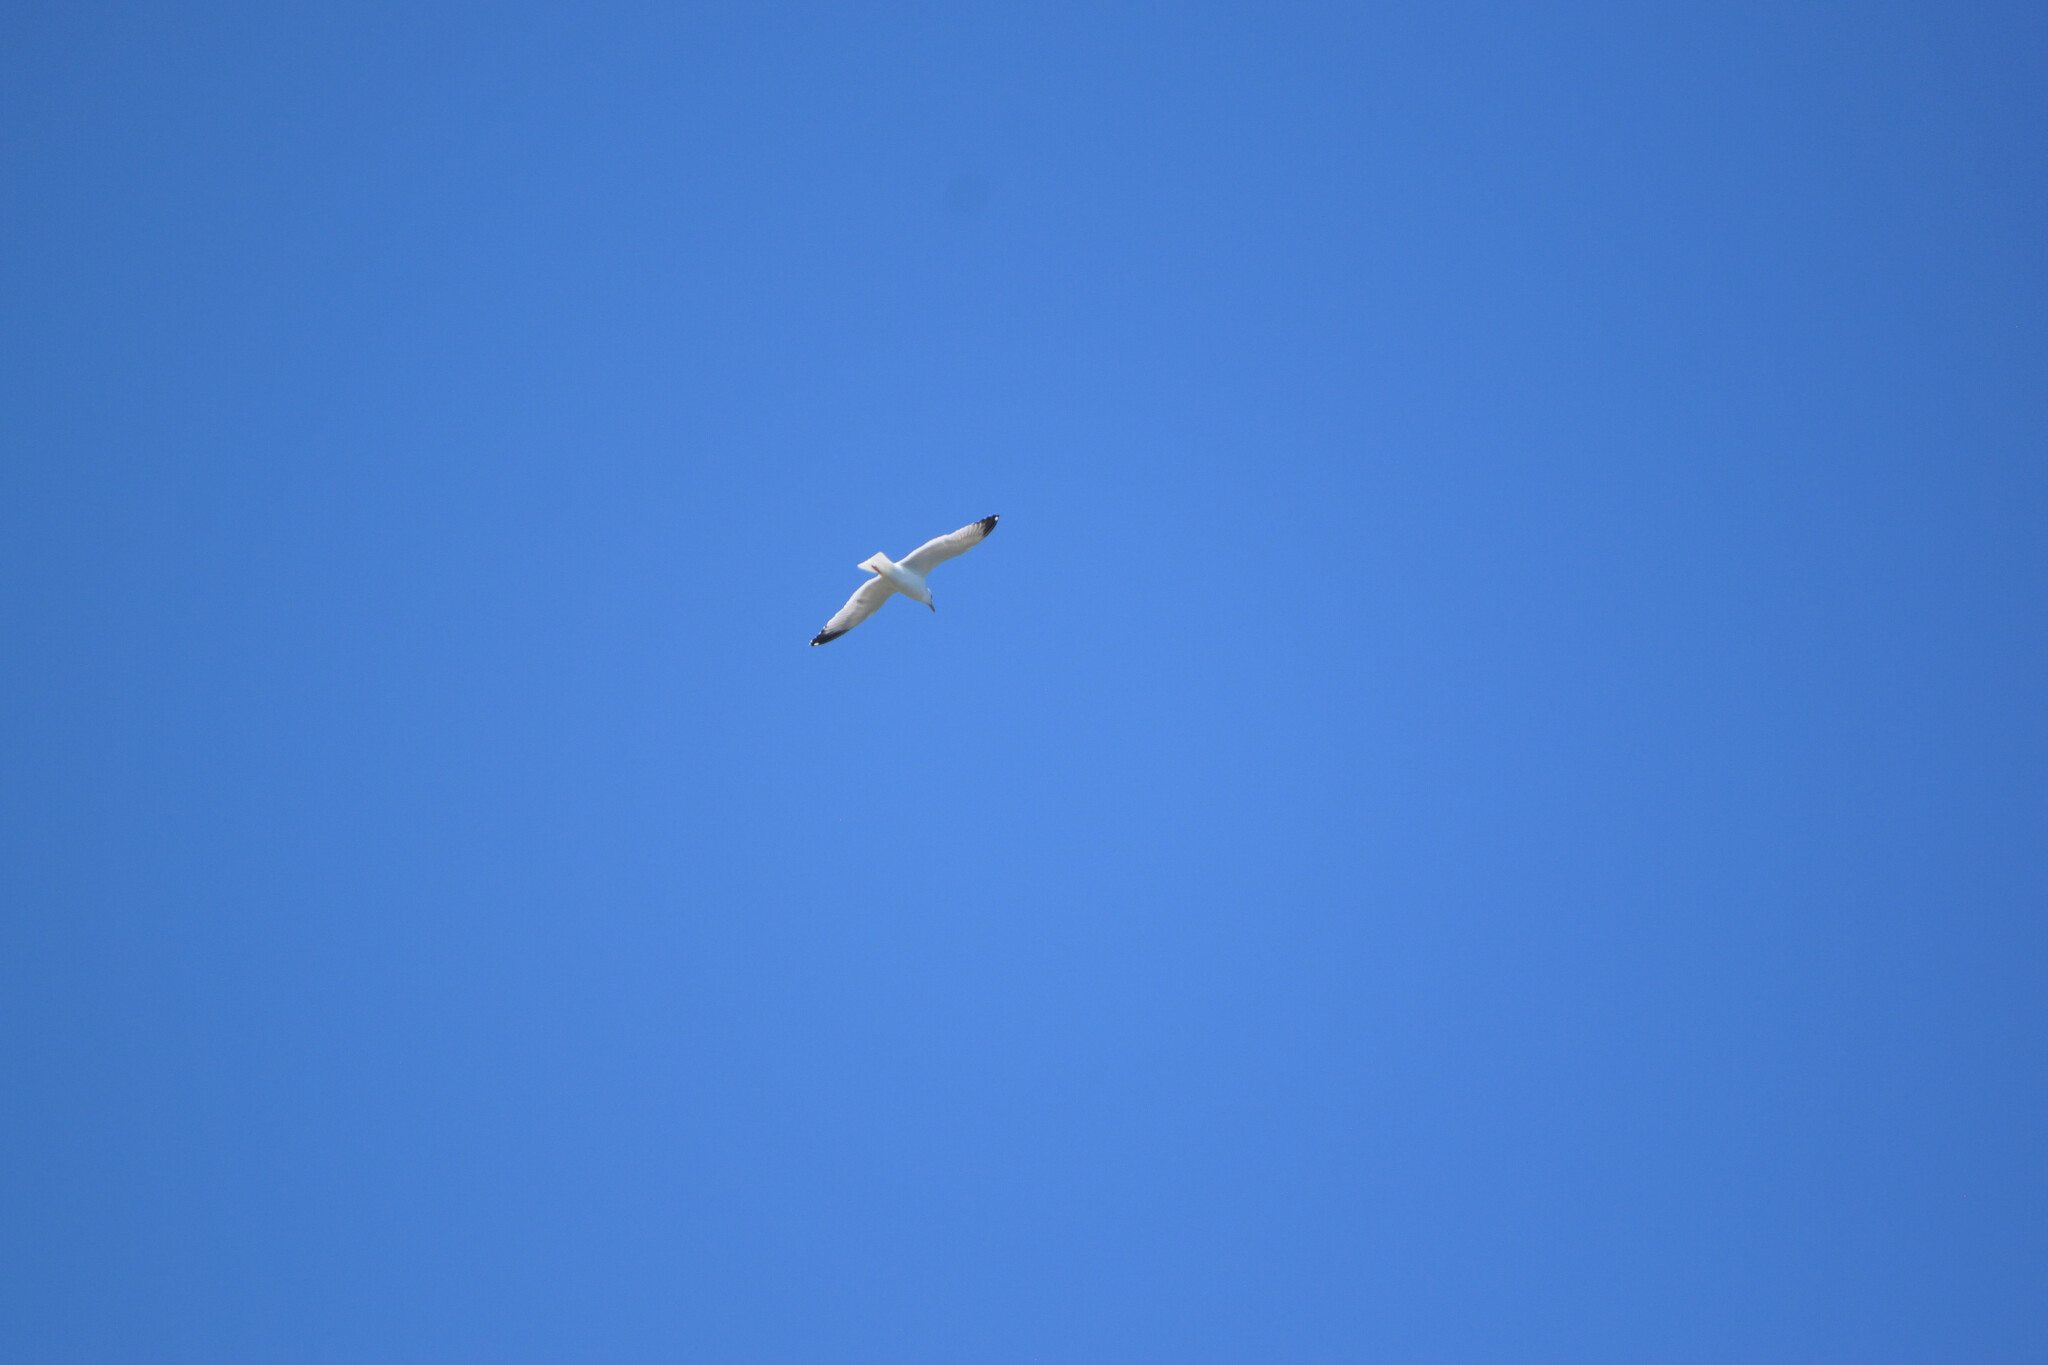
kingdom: Animalia
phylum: Chordata
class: Aves
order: Charadriiformes
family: Laridae
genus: Larus
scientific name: Larus occidentalis
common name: Western gull
